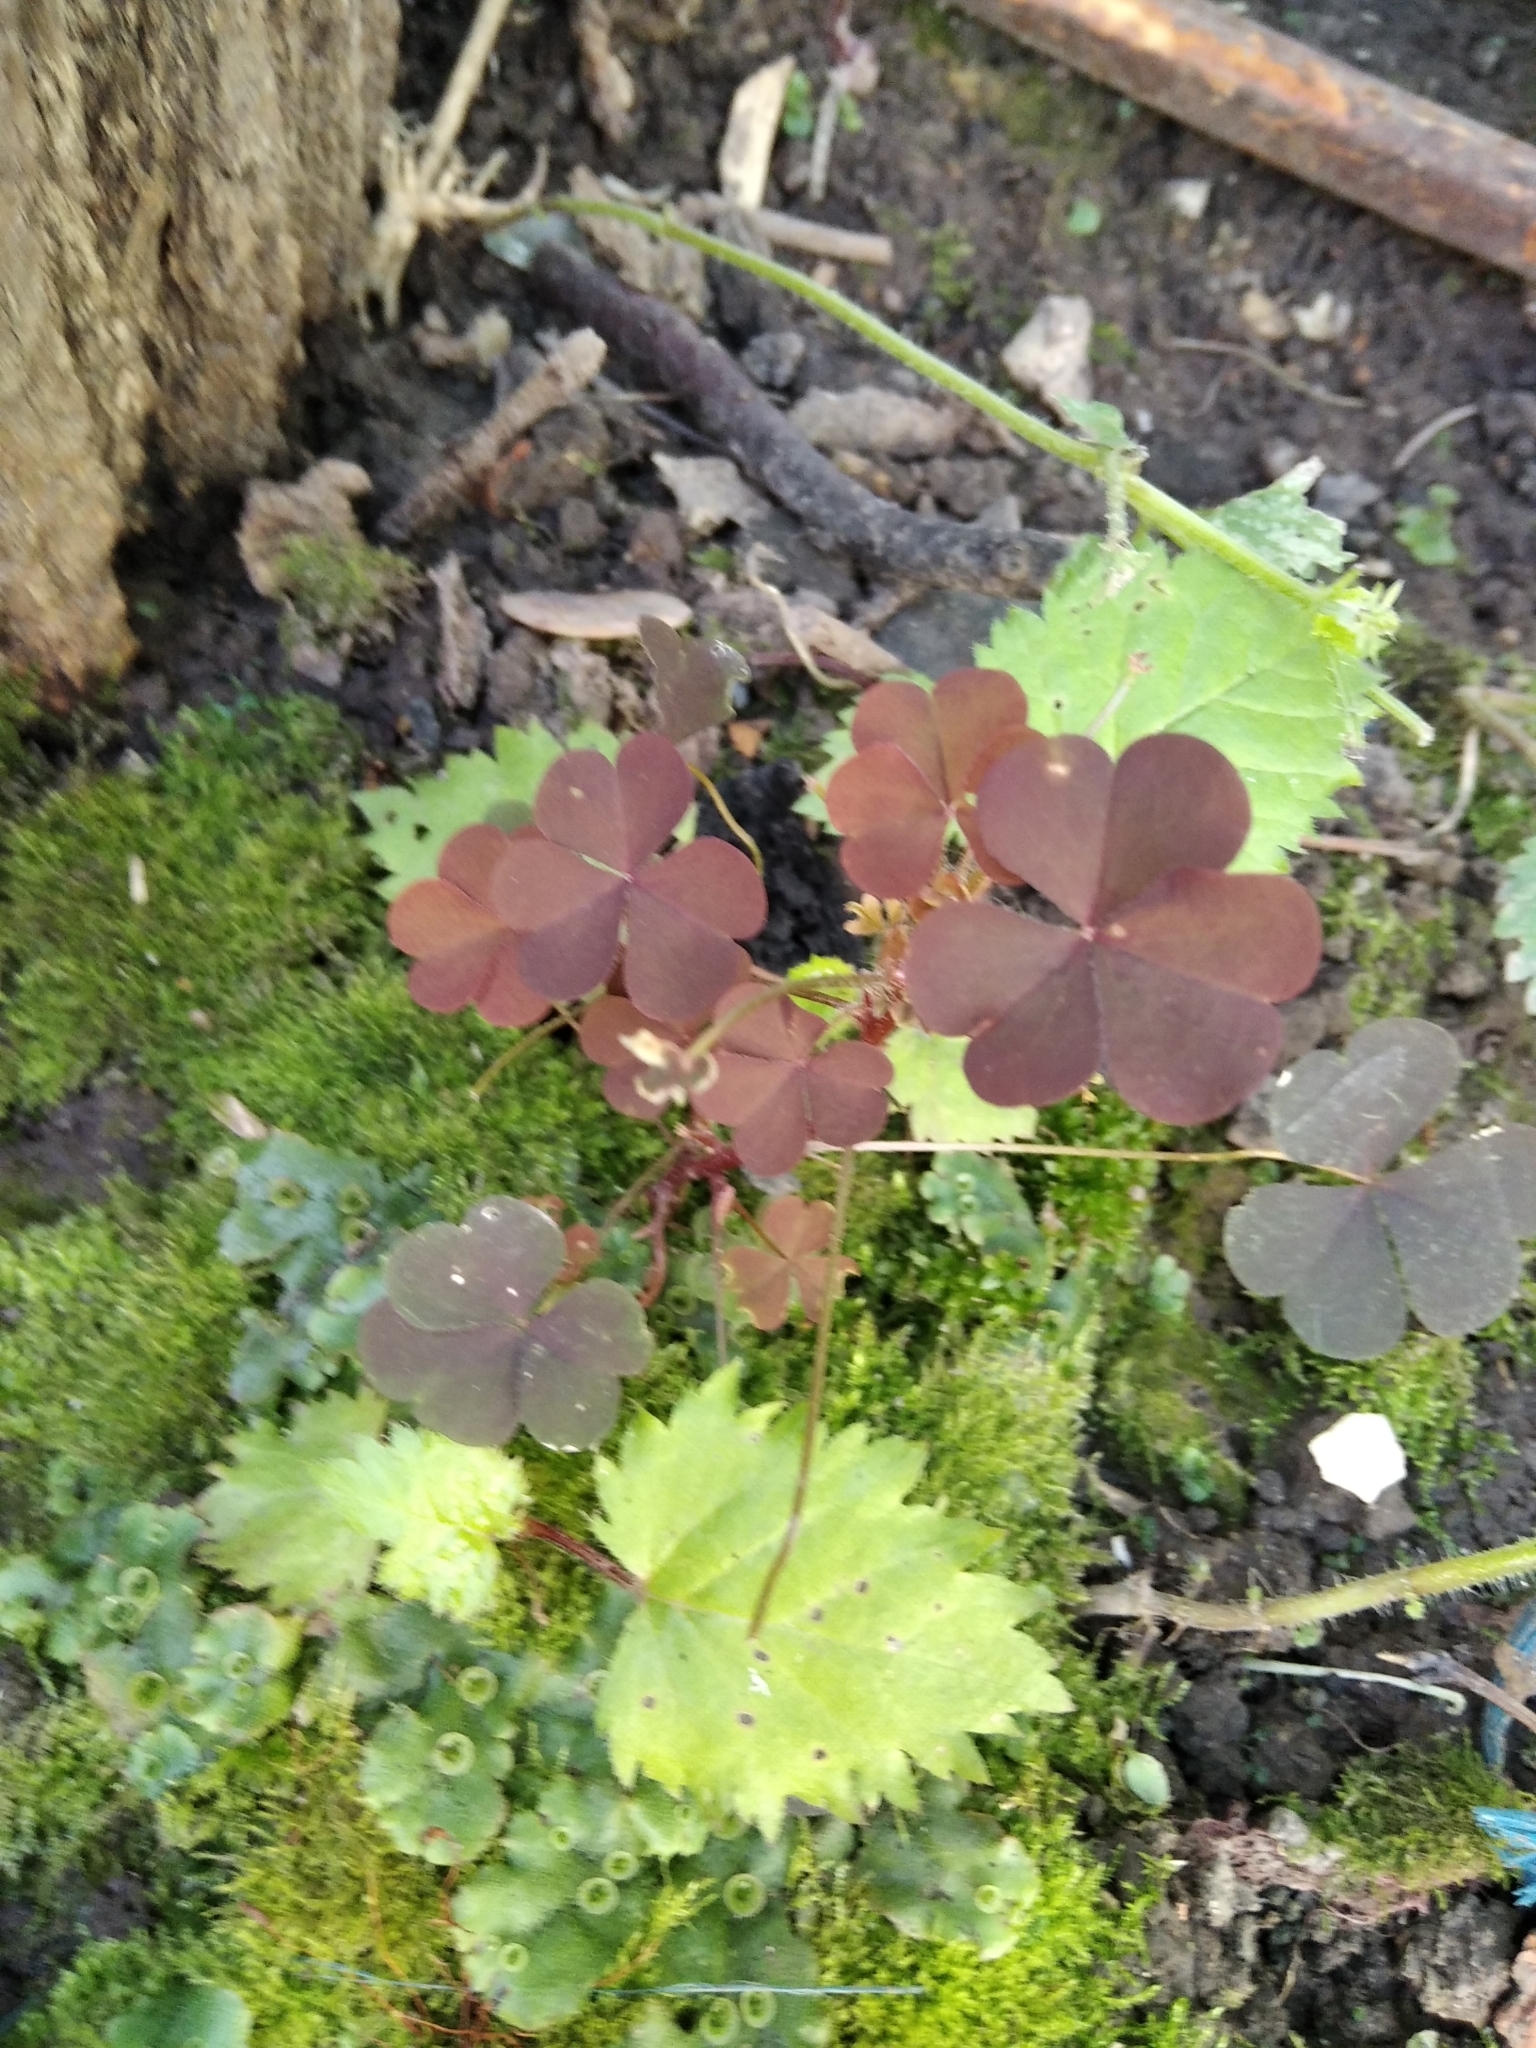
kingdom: Plantae
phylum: Tracheophyta
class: Magnoliopsida
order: Oxalidales
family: Oxalidaceae
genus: Oxalis
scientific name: Oxalis stricta
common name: Upright yellow-sorrel
